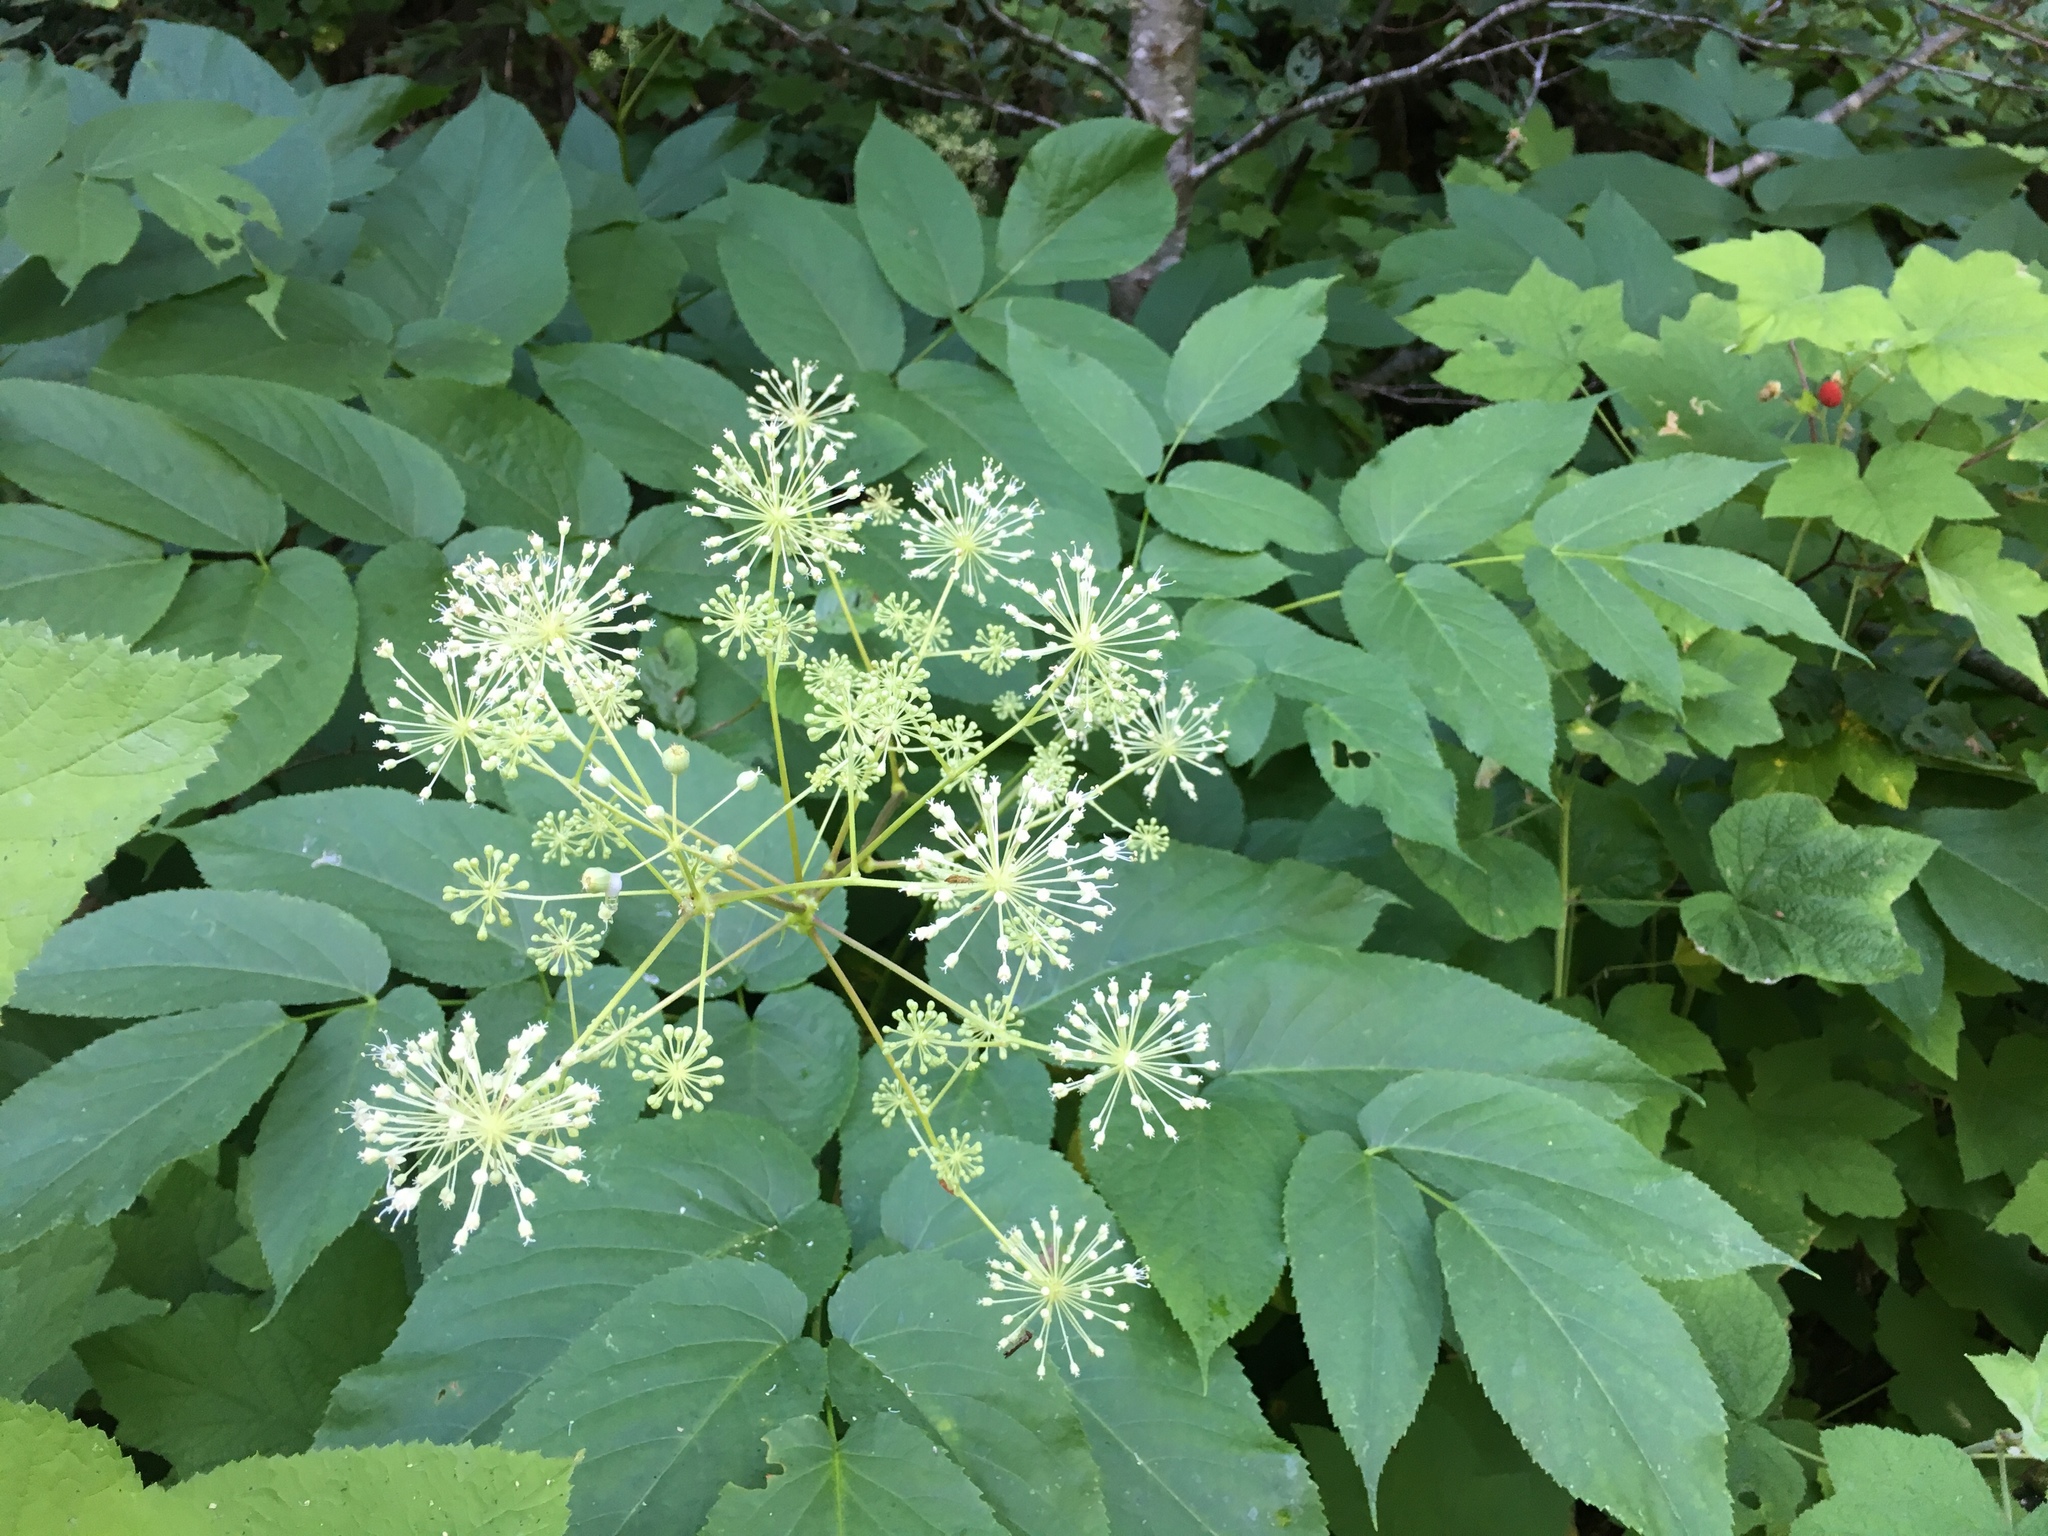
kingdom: Plantae
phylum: Tracheophyta
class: Magnoliopsida
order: Apiales
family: Araliaceae
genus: Aralia
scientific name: Aralia californica
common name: California-ginseng
